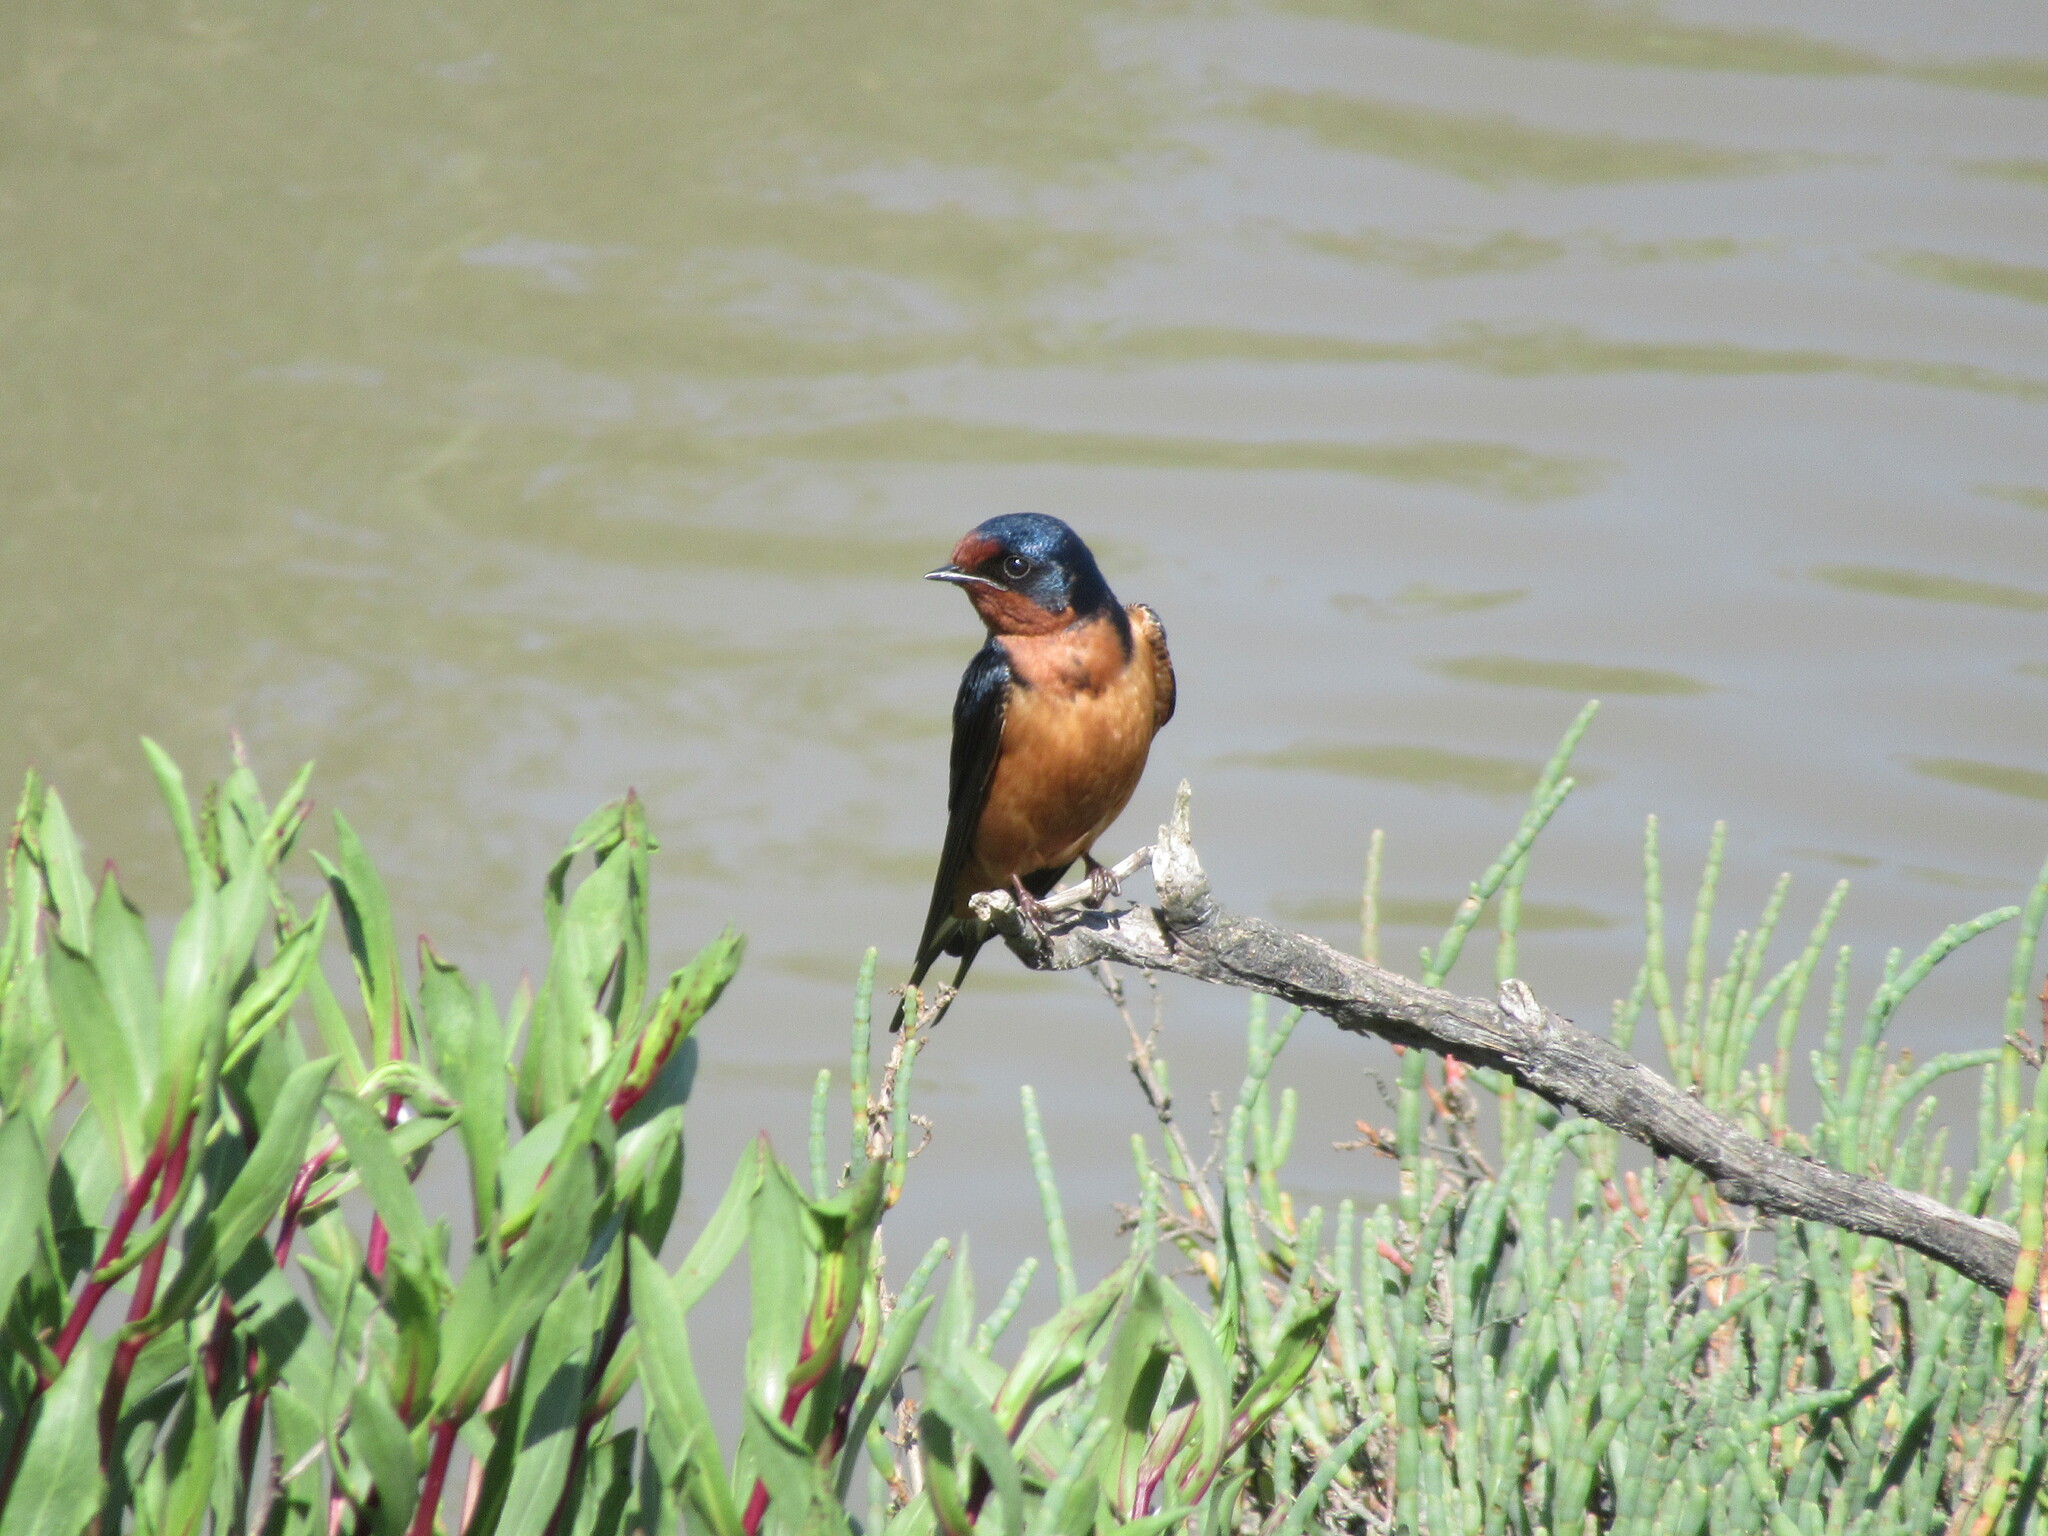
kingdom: Animalia
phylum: Chordata
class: Aves
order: Passeriformes
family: Hirundinidae
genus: Hirundo
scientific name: Hirundo rustica
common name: Barn swallow
